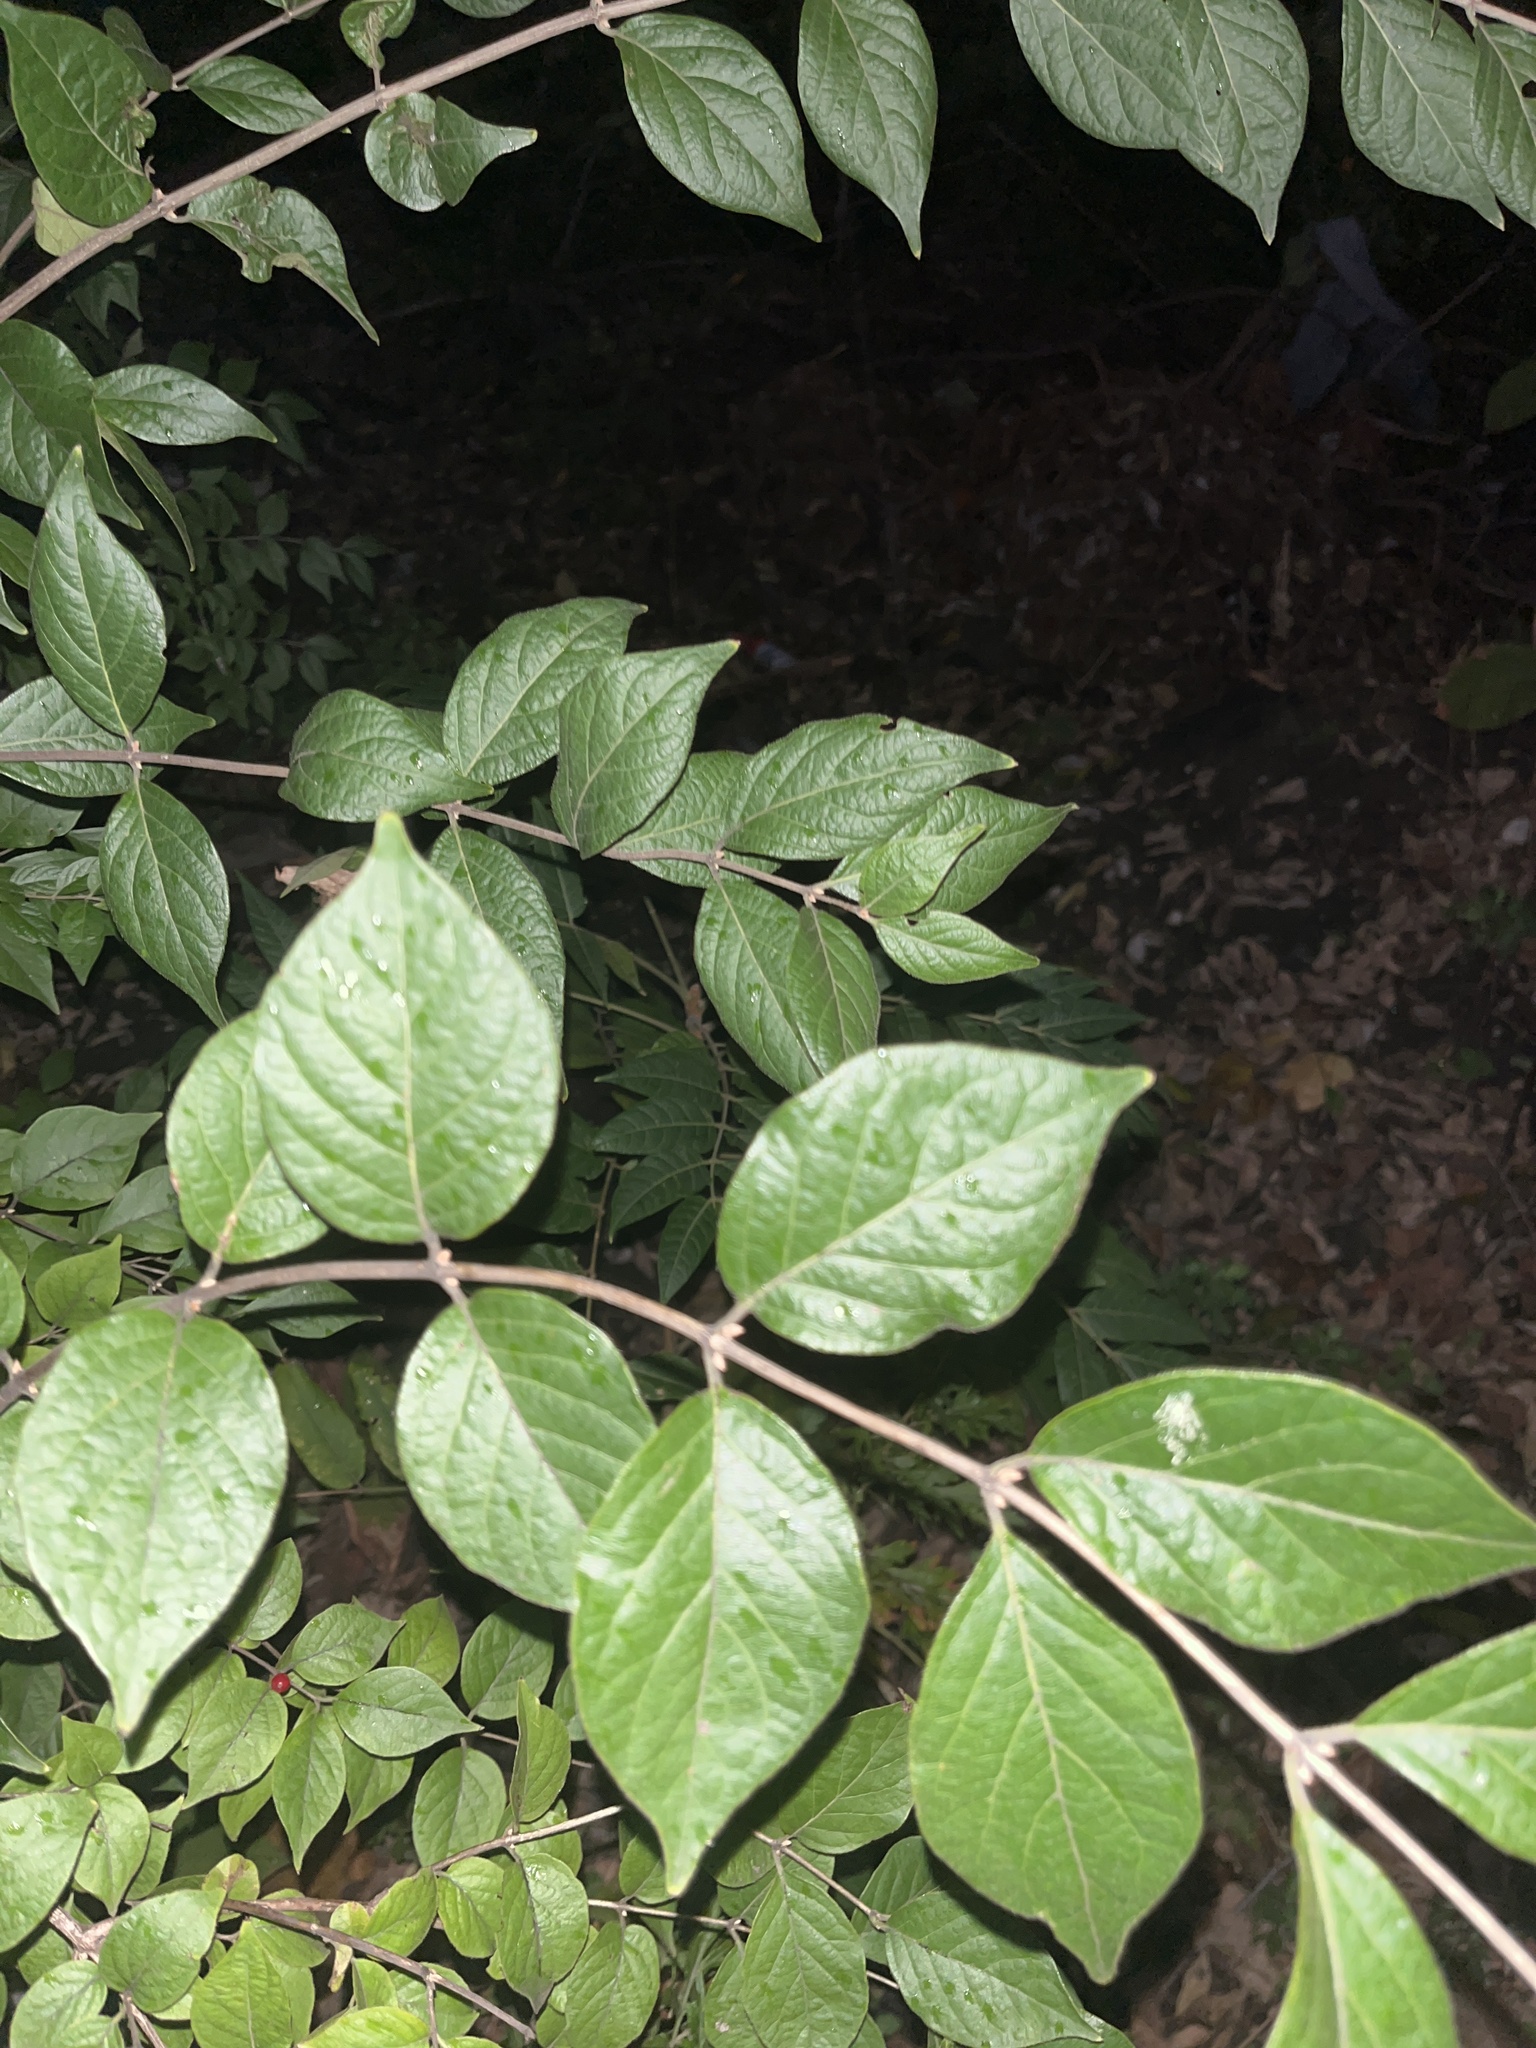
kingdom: Plantae
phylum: Tracheophyta
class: Magnoliopsida
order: Dipsacales
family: Caprifoliaceae
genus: Lonicera
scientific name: Lonicera maackii
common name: Amur honeysuckle
